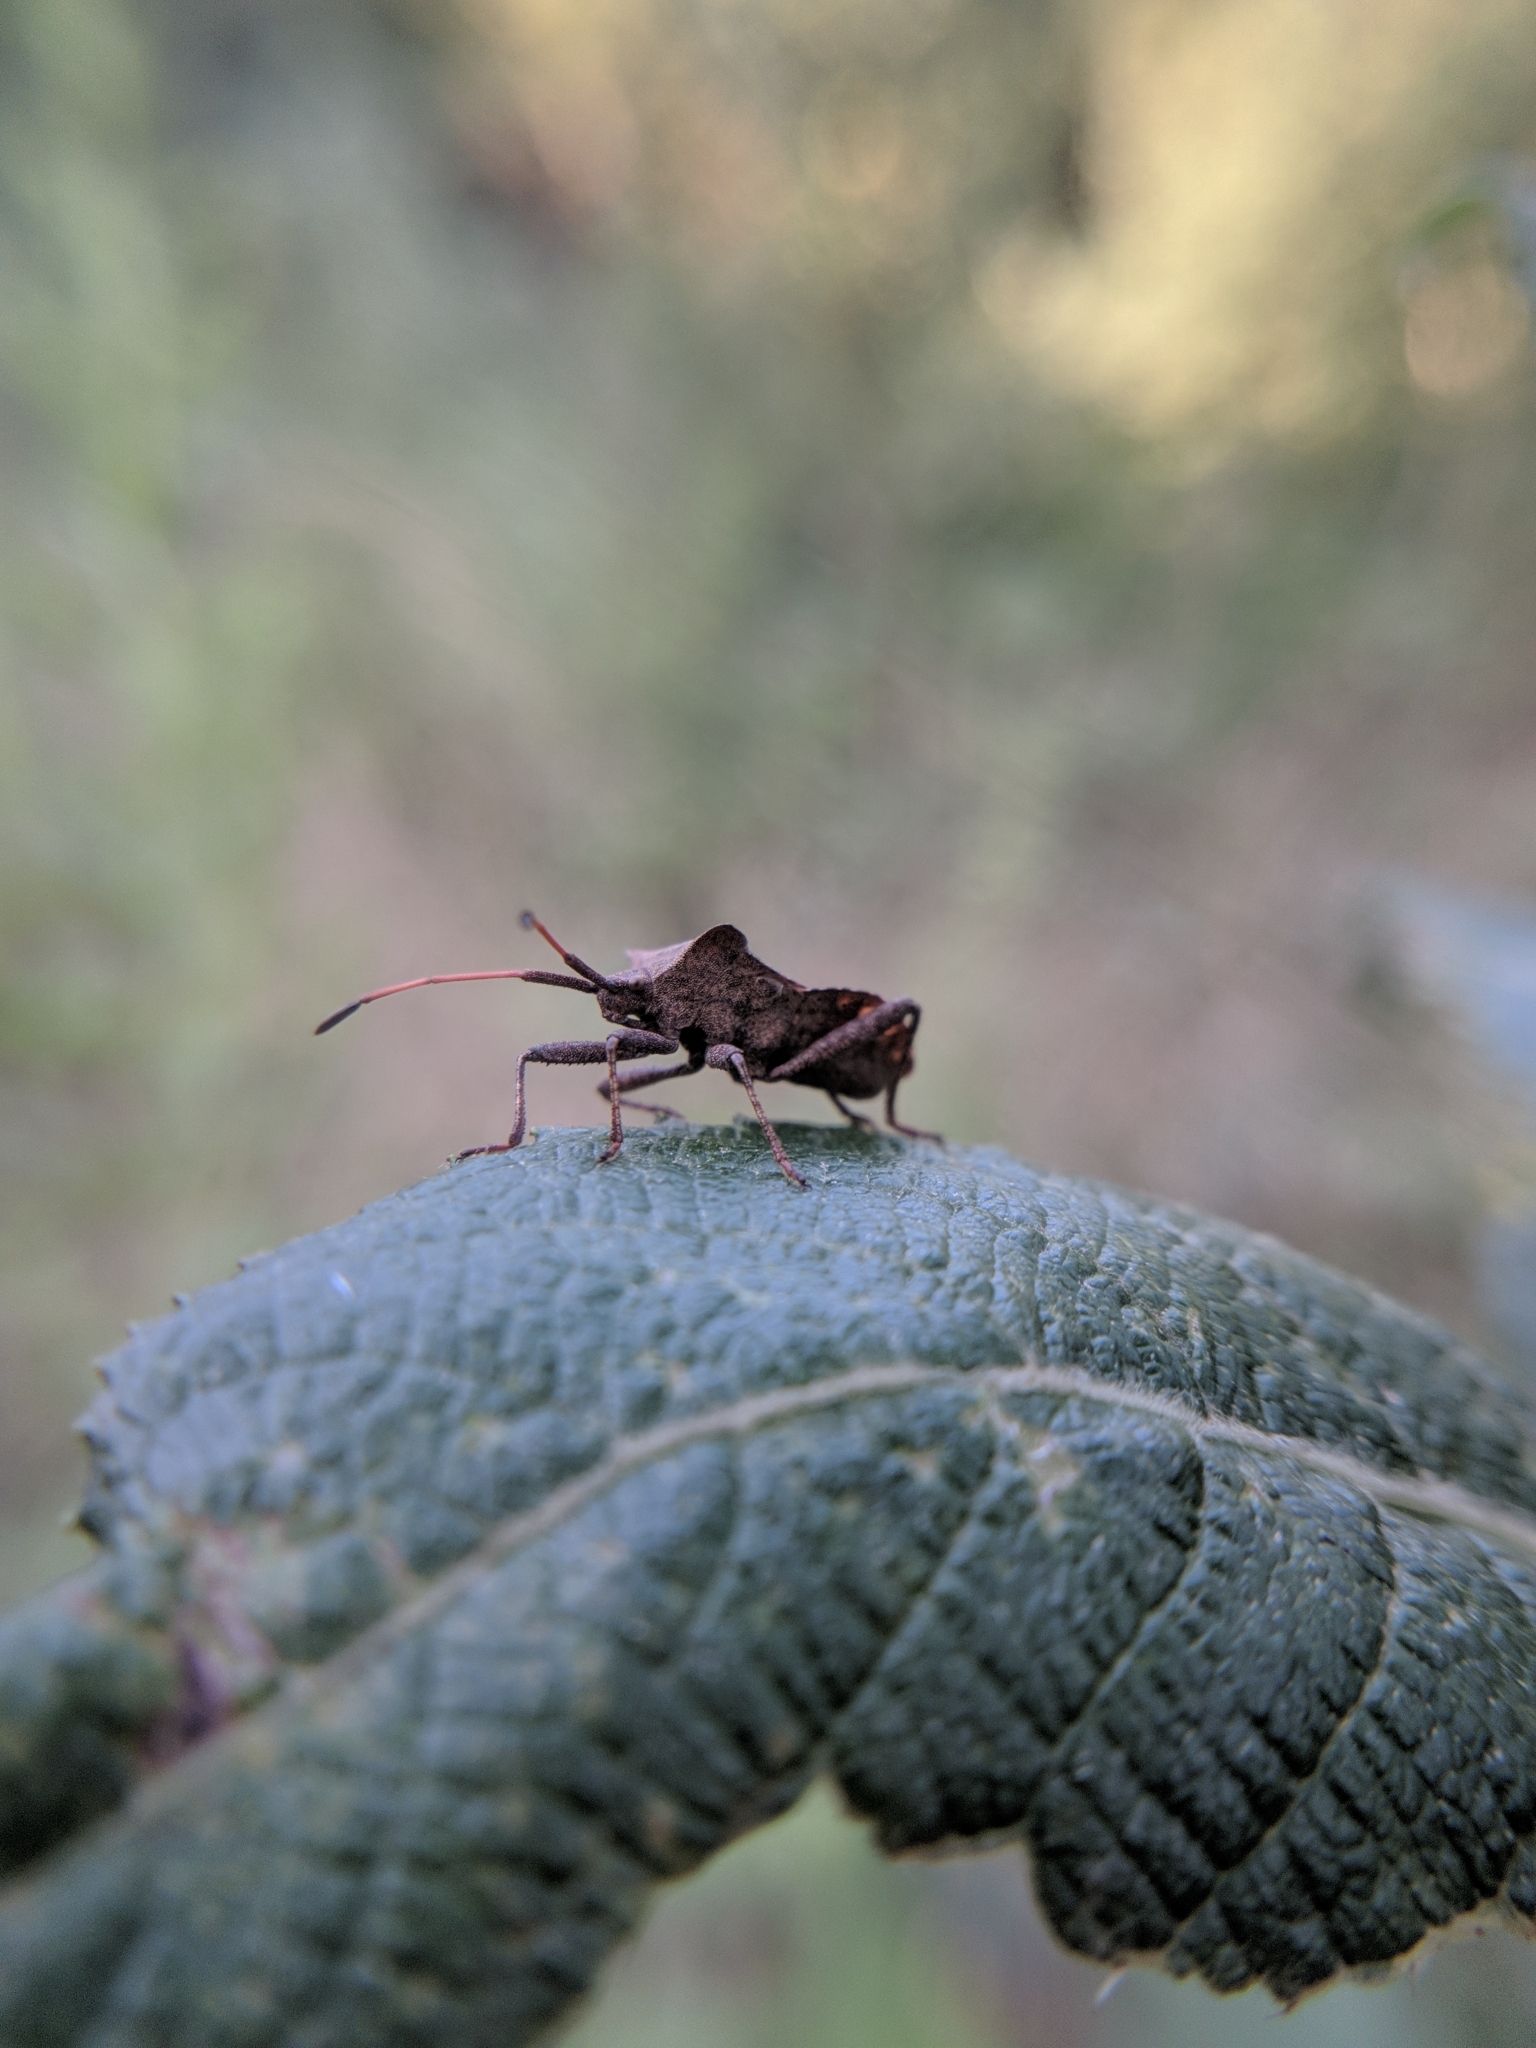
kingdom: Animalia
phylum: Arthropoda
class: Insecta
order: Hemiptera
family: Coreidae
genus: Coreus
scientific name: Coreus marginatus
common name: Dock bug
